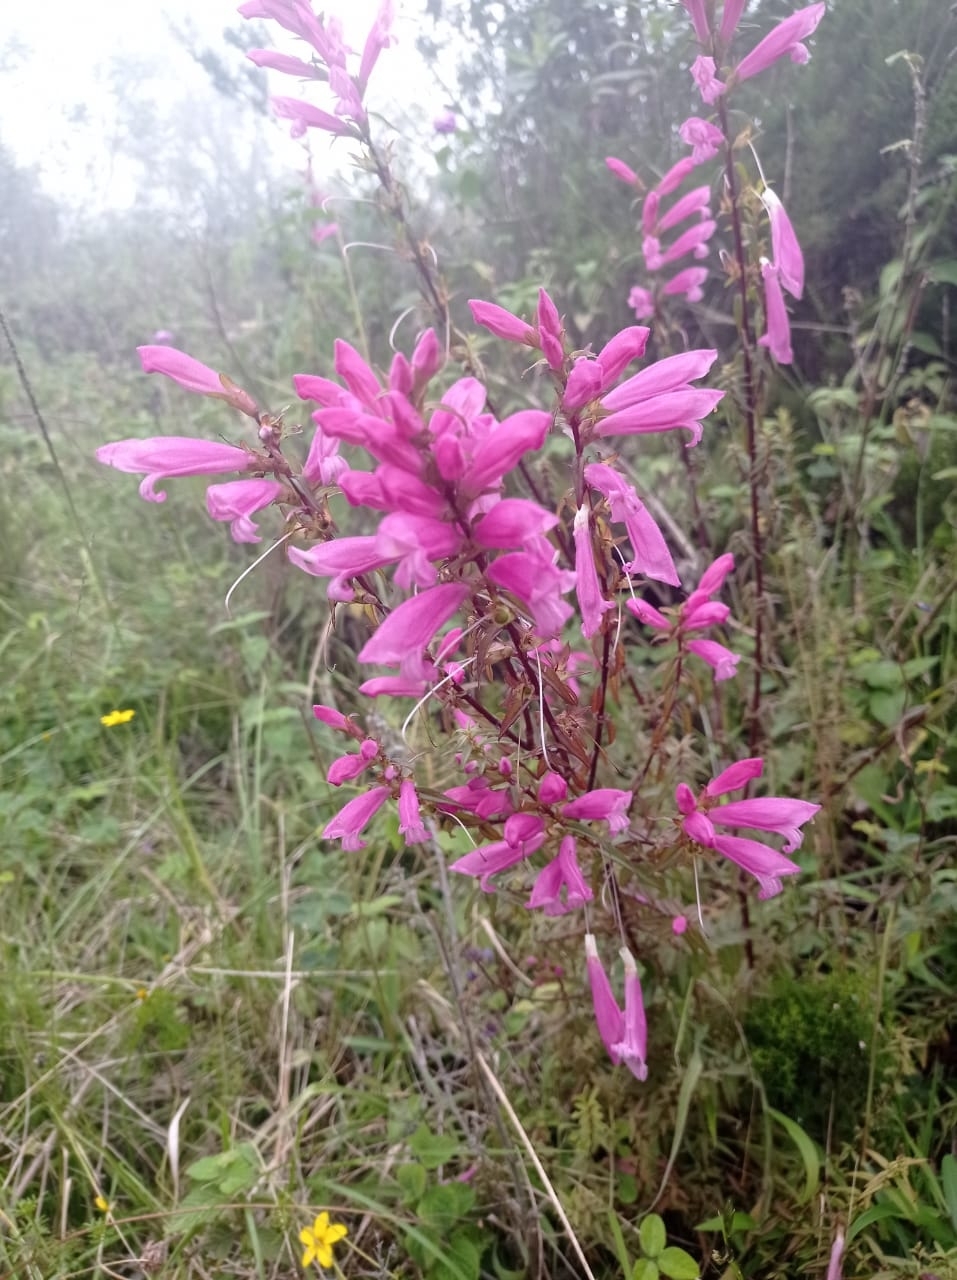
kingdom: Plantae
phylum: Tracheophyta
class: Magnoliopsida
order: Lamiales
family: Orobanchaceae
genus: Lamourouxia
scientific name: Lamourouxia virgata
